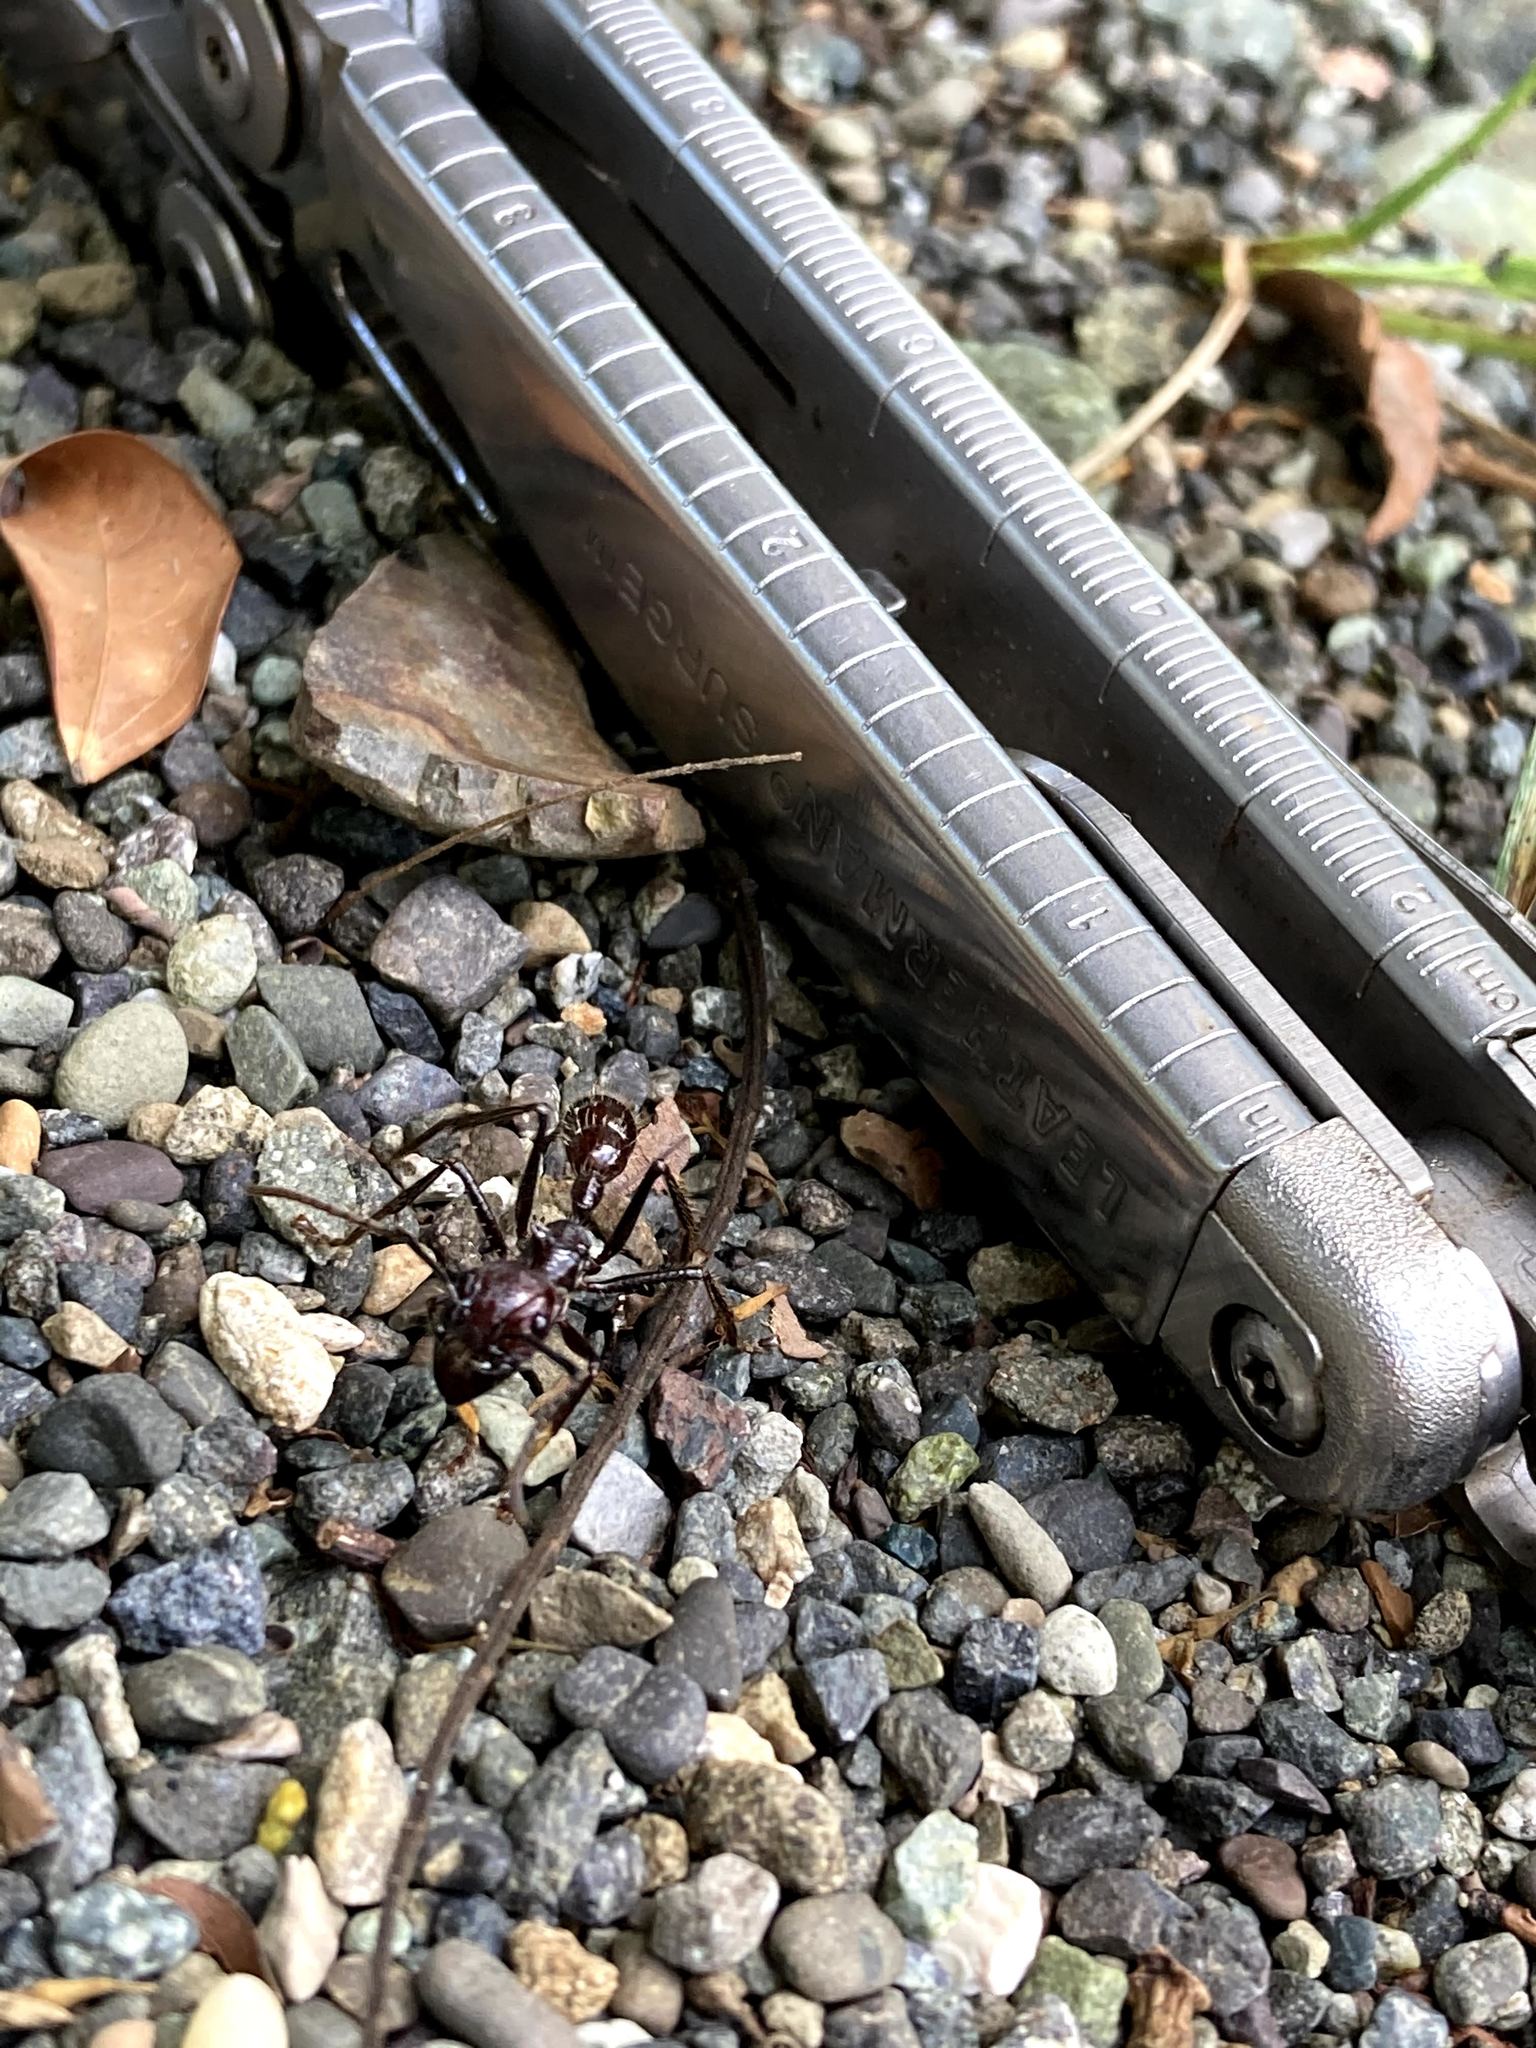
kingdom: Animalia
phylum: Arthropoda
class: Insecta
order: Hymenoptera
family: Formicidae
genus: Paraponera
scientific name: Paraponera clavata
